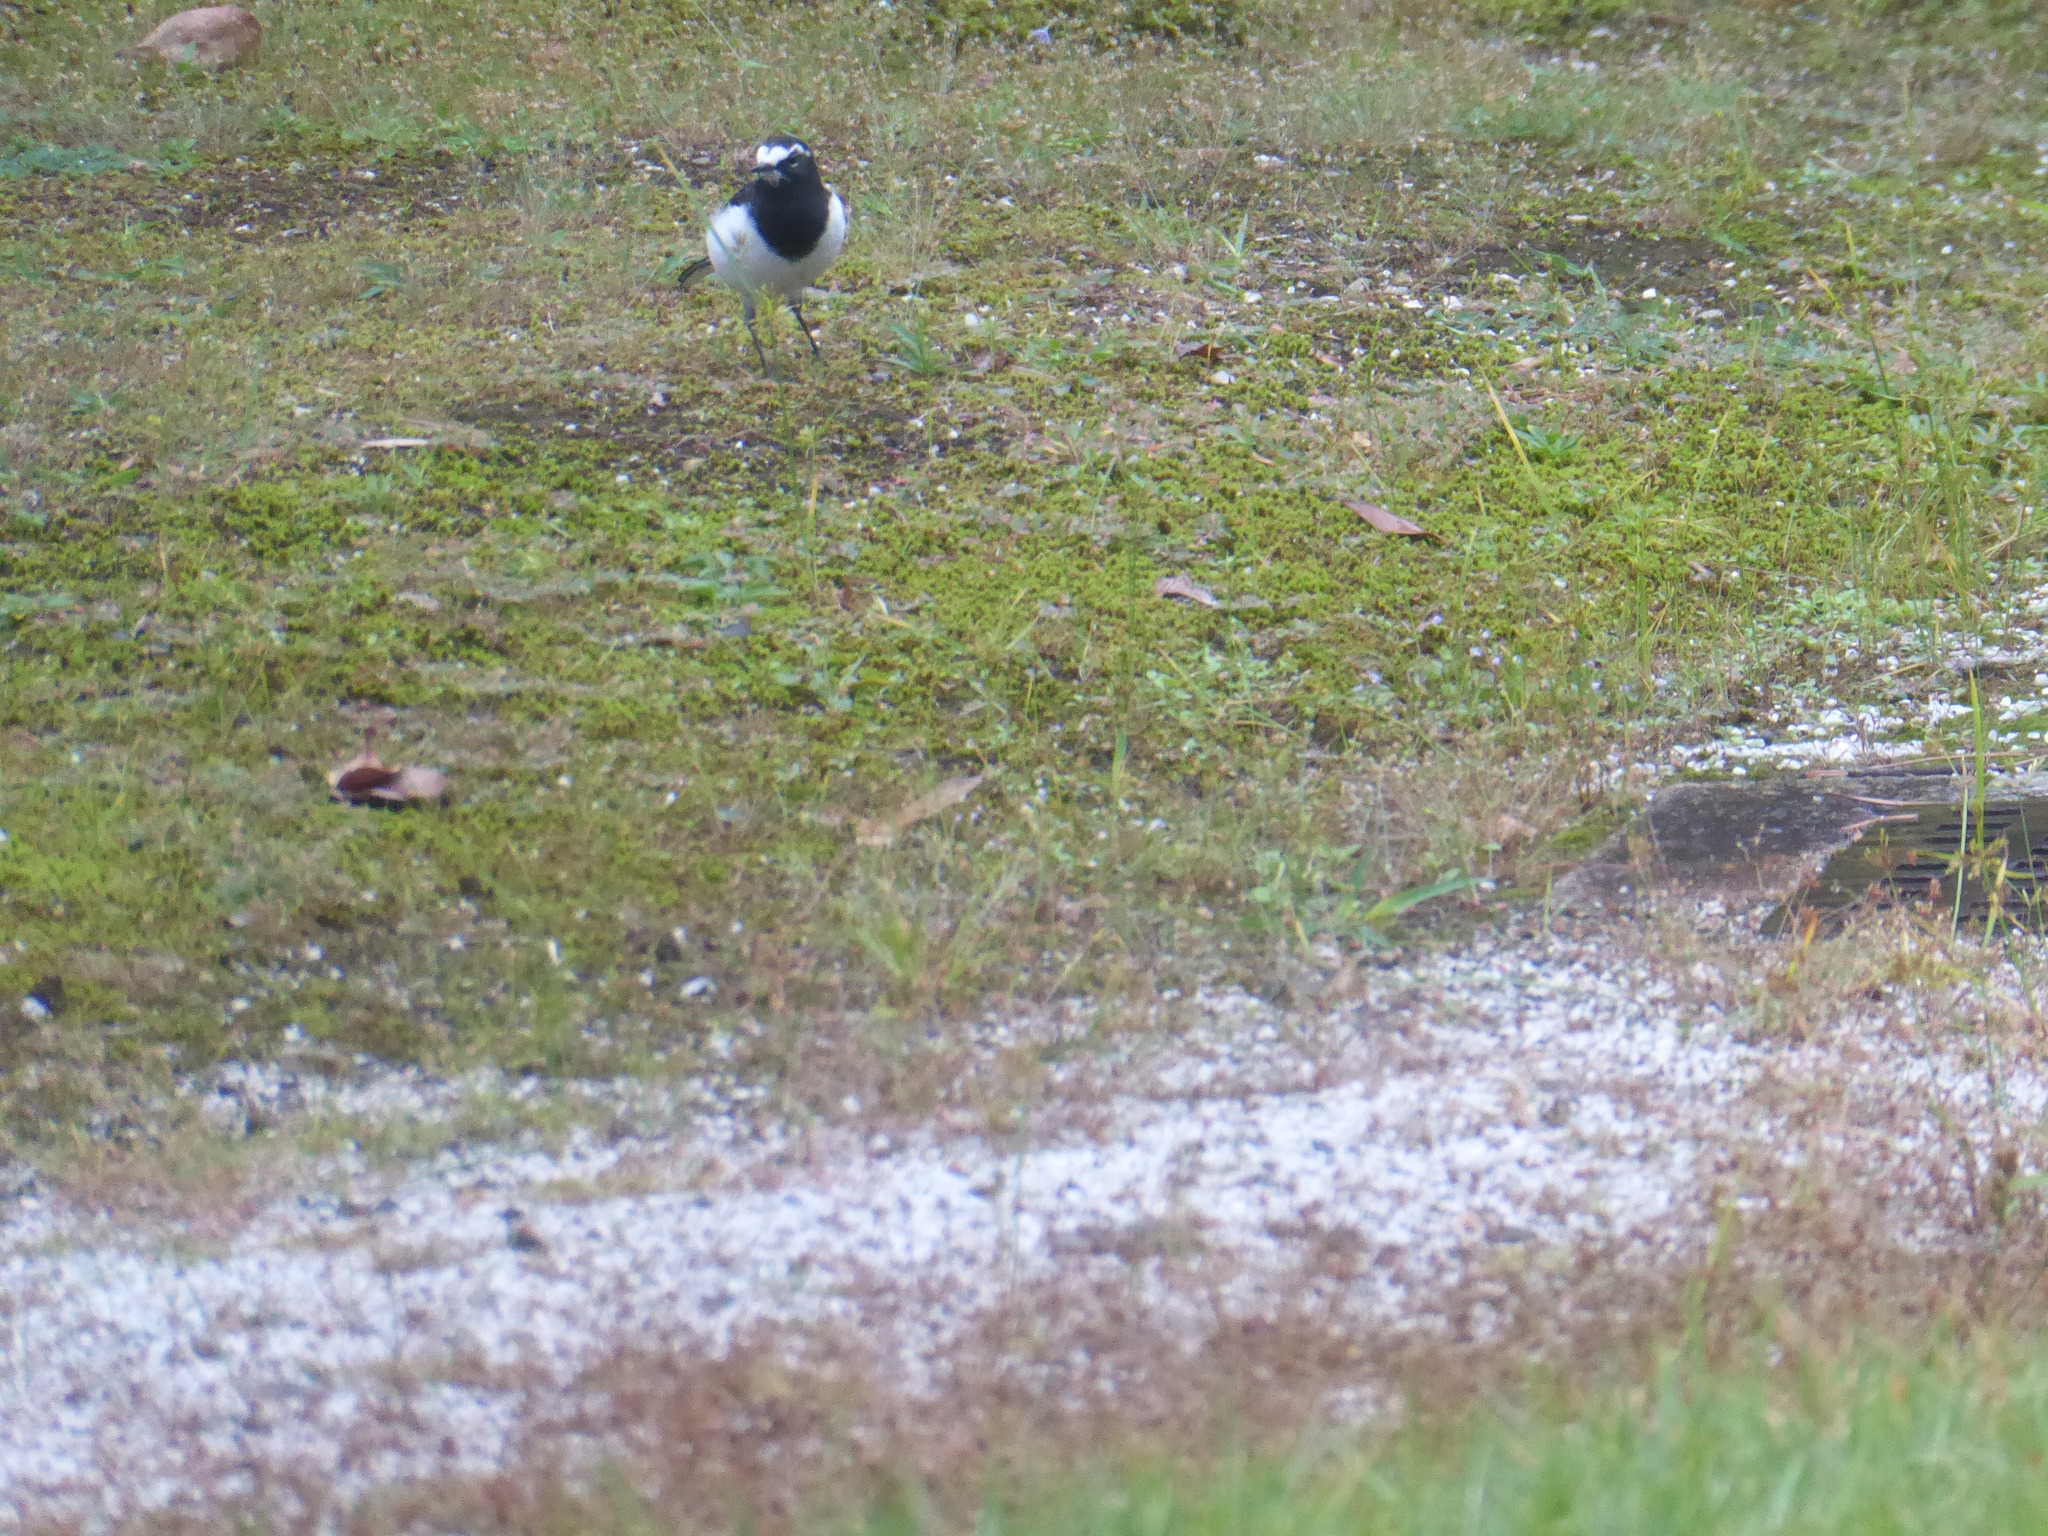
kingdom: Animalia
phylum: Chordata
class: Aves
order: Passeriformes
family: Motacillidae
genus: Motacilla
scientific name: Motacilla grandis
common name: Japanese wagtail
